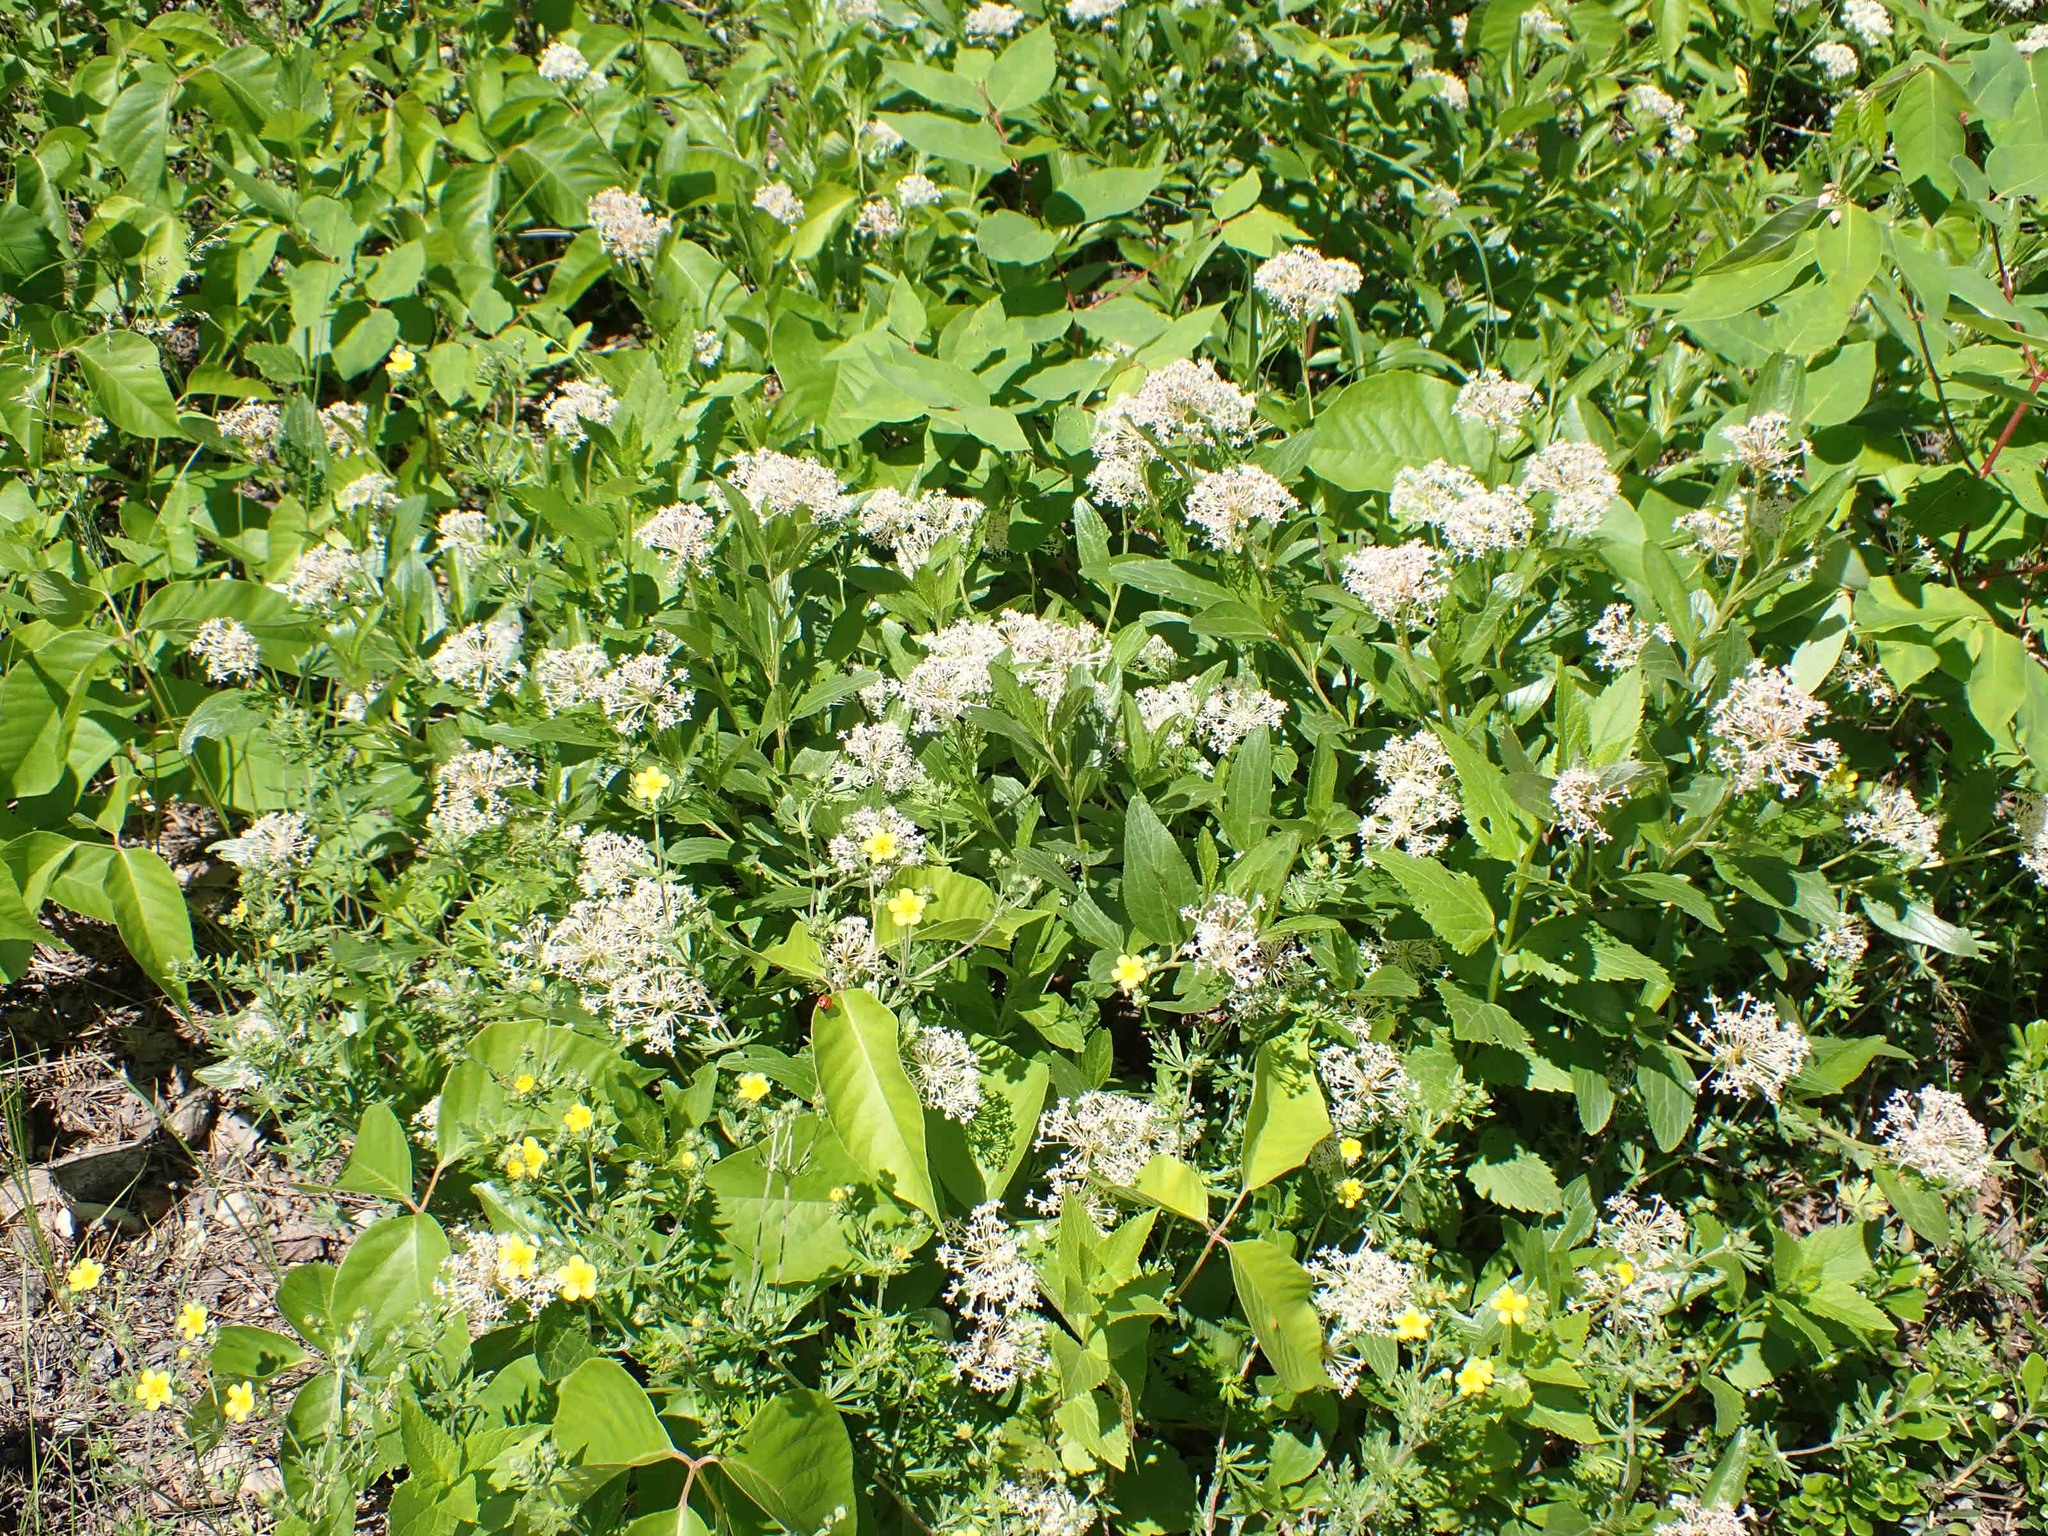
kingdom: Plantae
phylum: Tracheophyta
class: Magnoliopsida
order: Rosales
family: Rhamnaceae
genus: Ceanothus
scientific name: Ceanothus herbaceus
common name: Inland ceanothus
